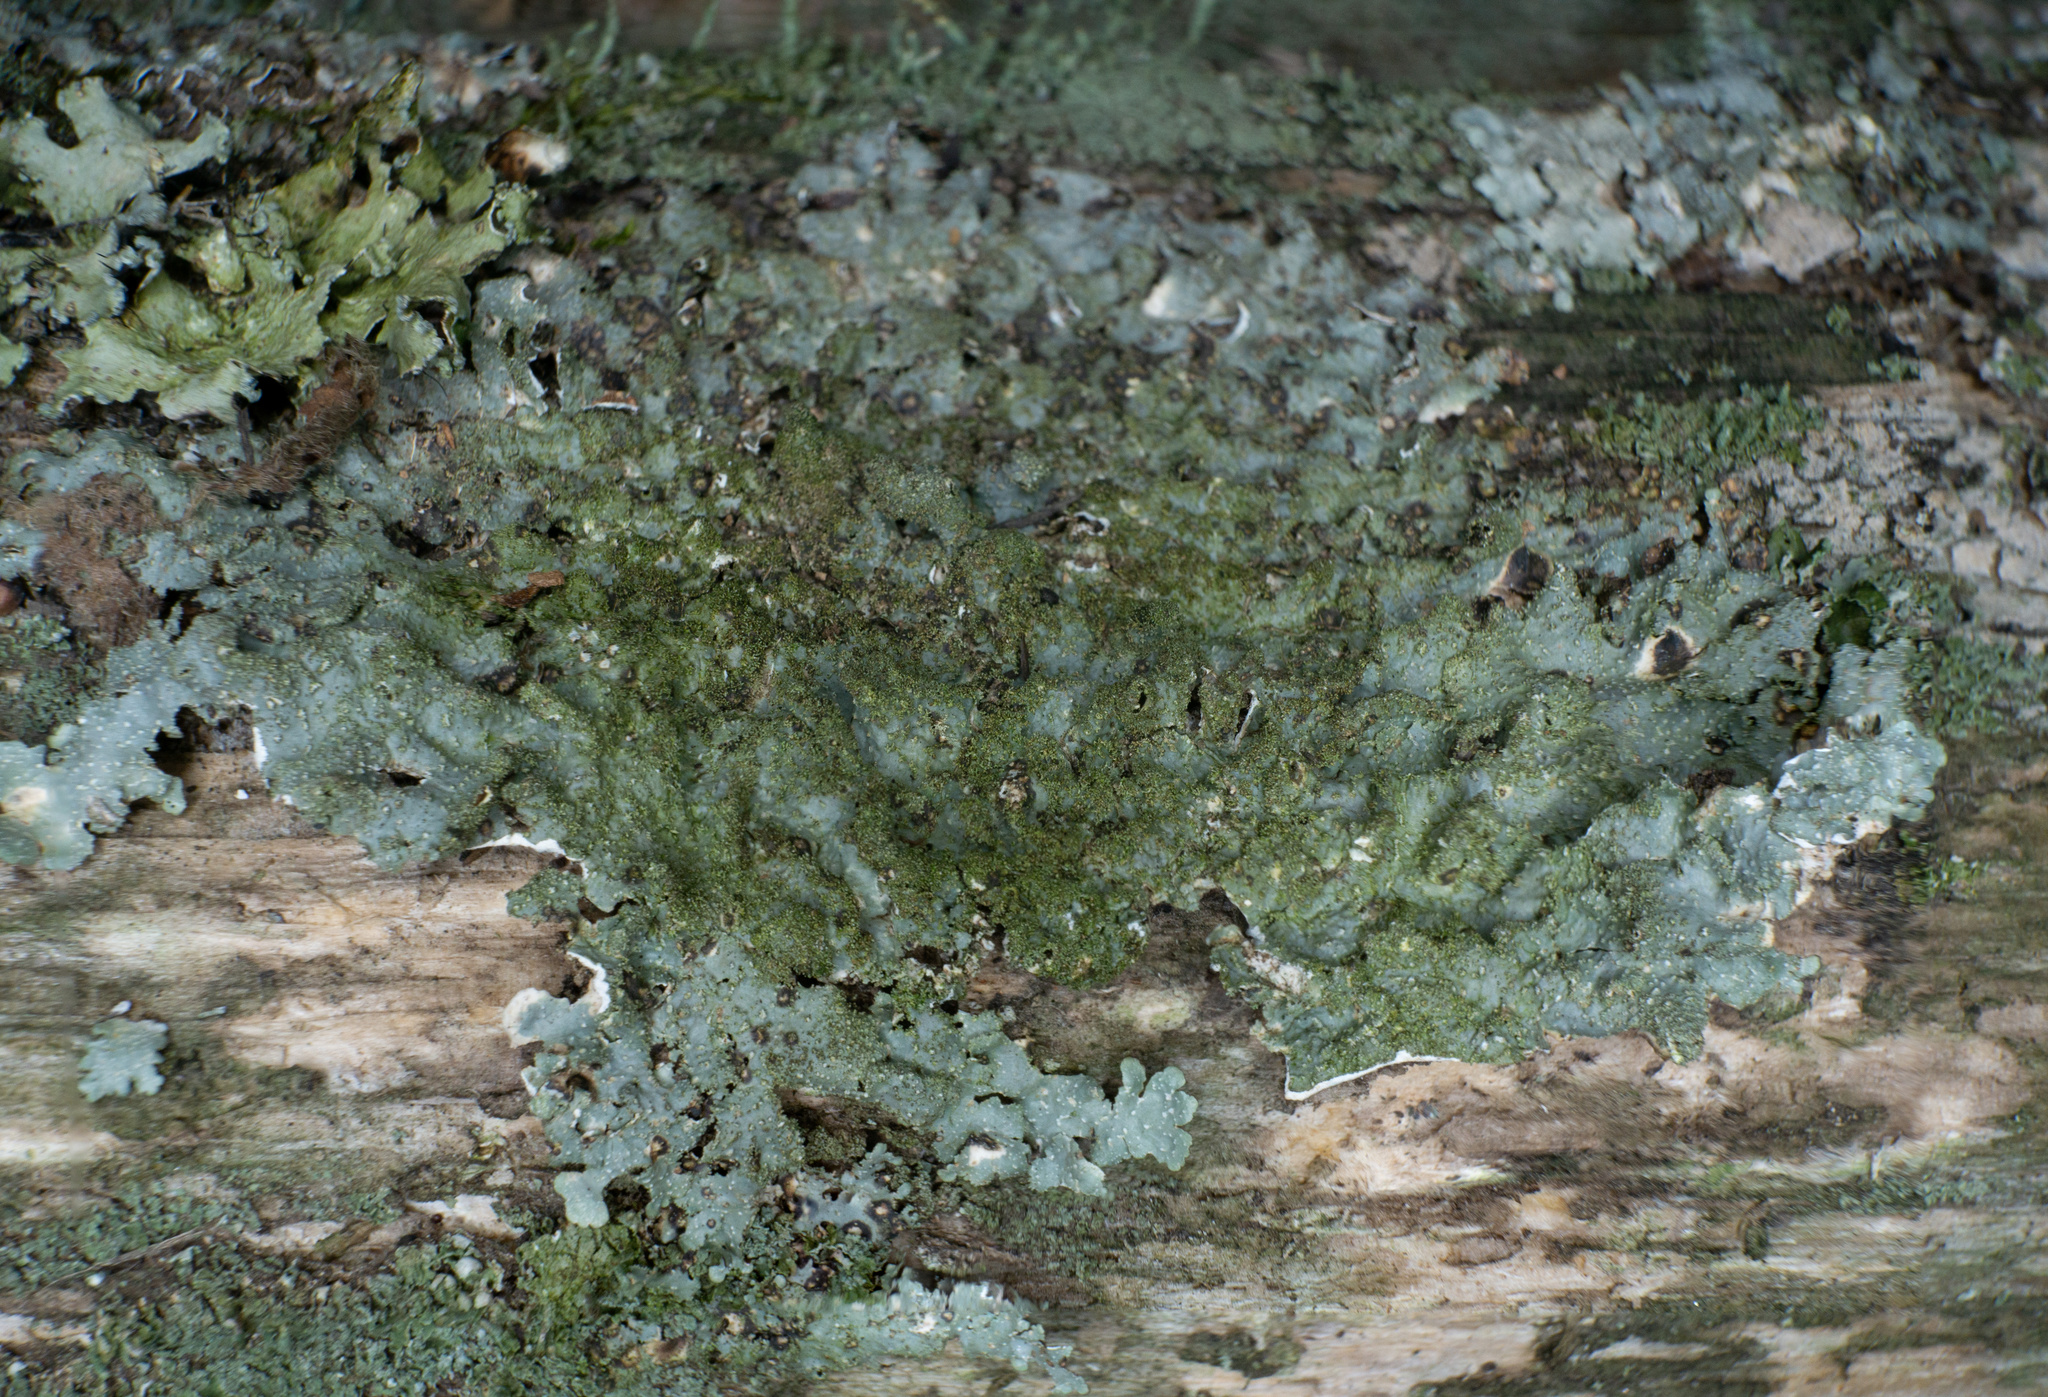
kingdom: Fungi
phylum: Ascomycota
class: Lecanoromycetes
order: Lecanorales
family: Parmeliaceae
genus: Punctelia
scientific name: Punctelia rudecta
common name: Rough speckled shield lichen
